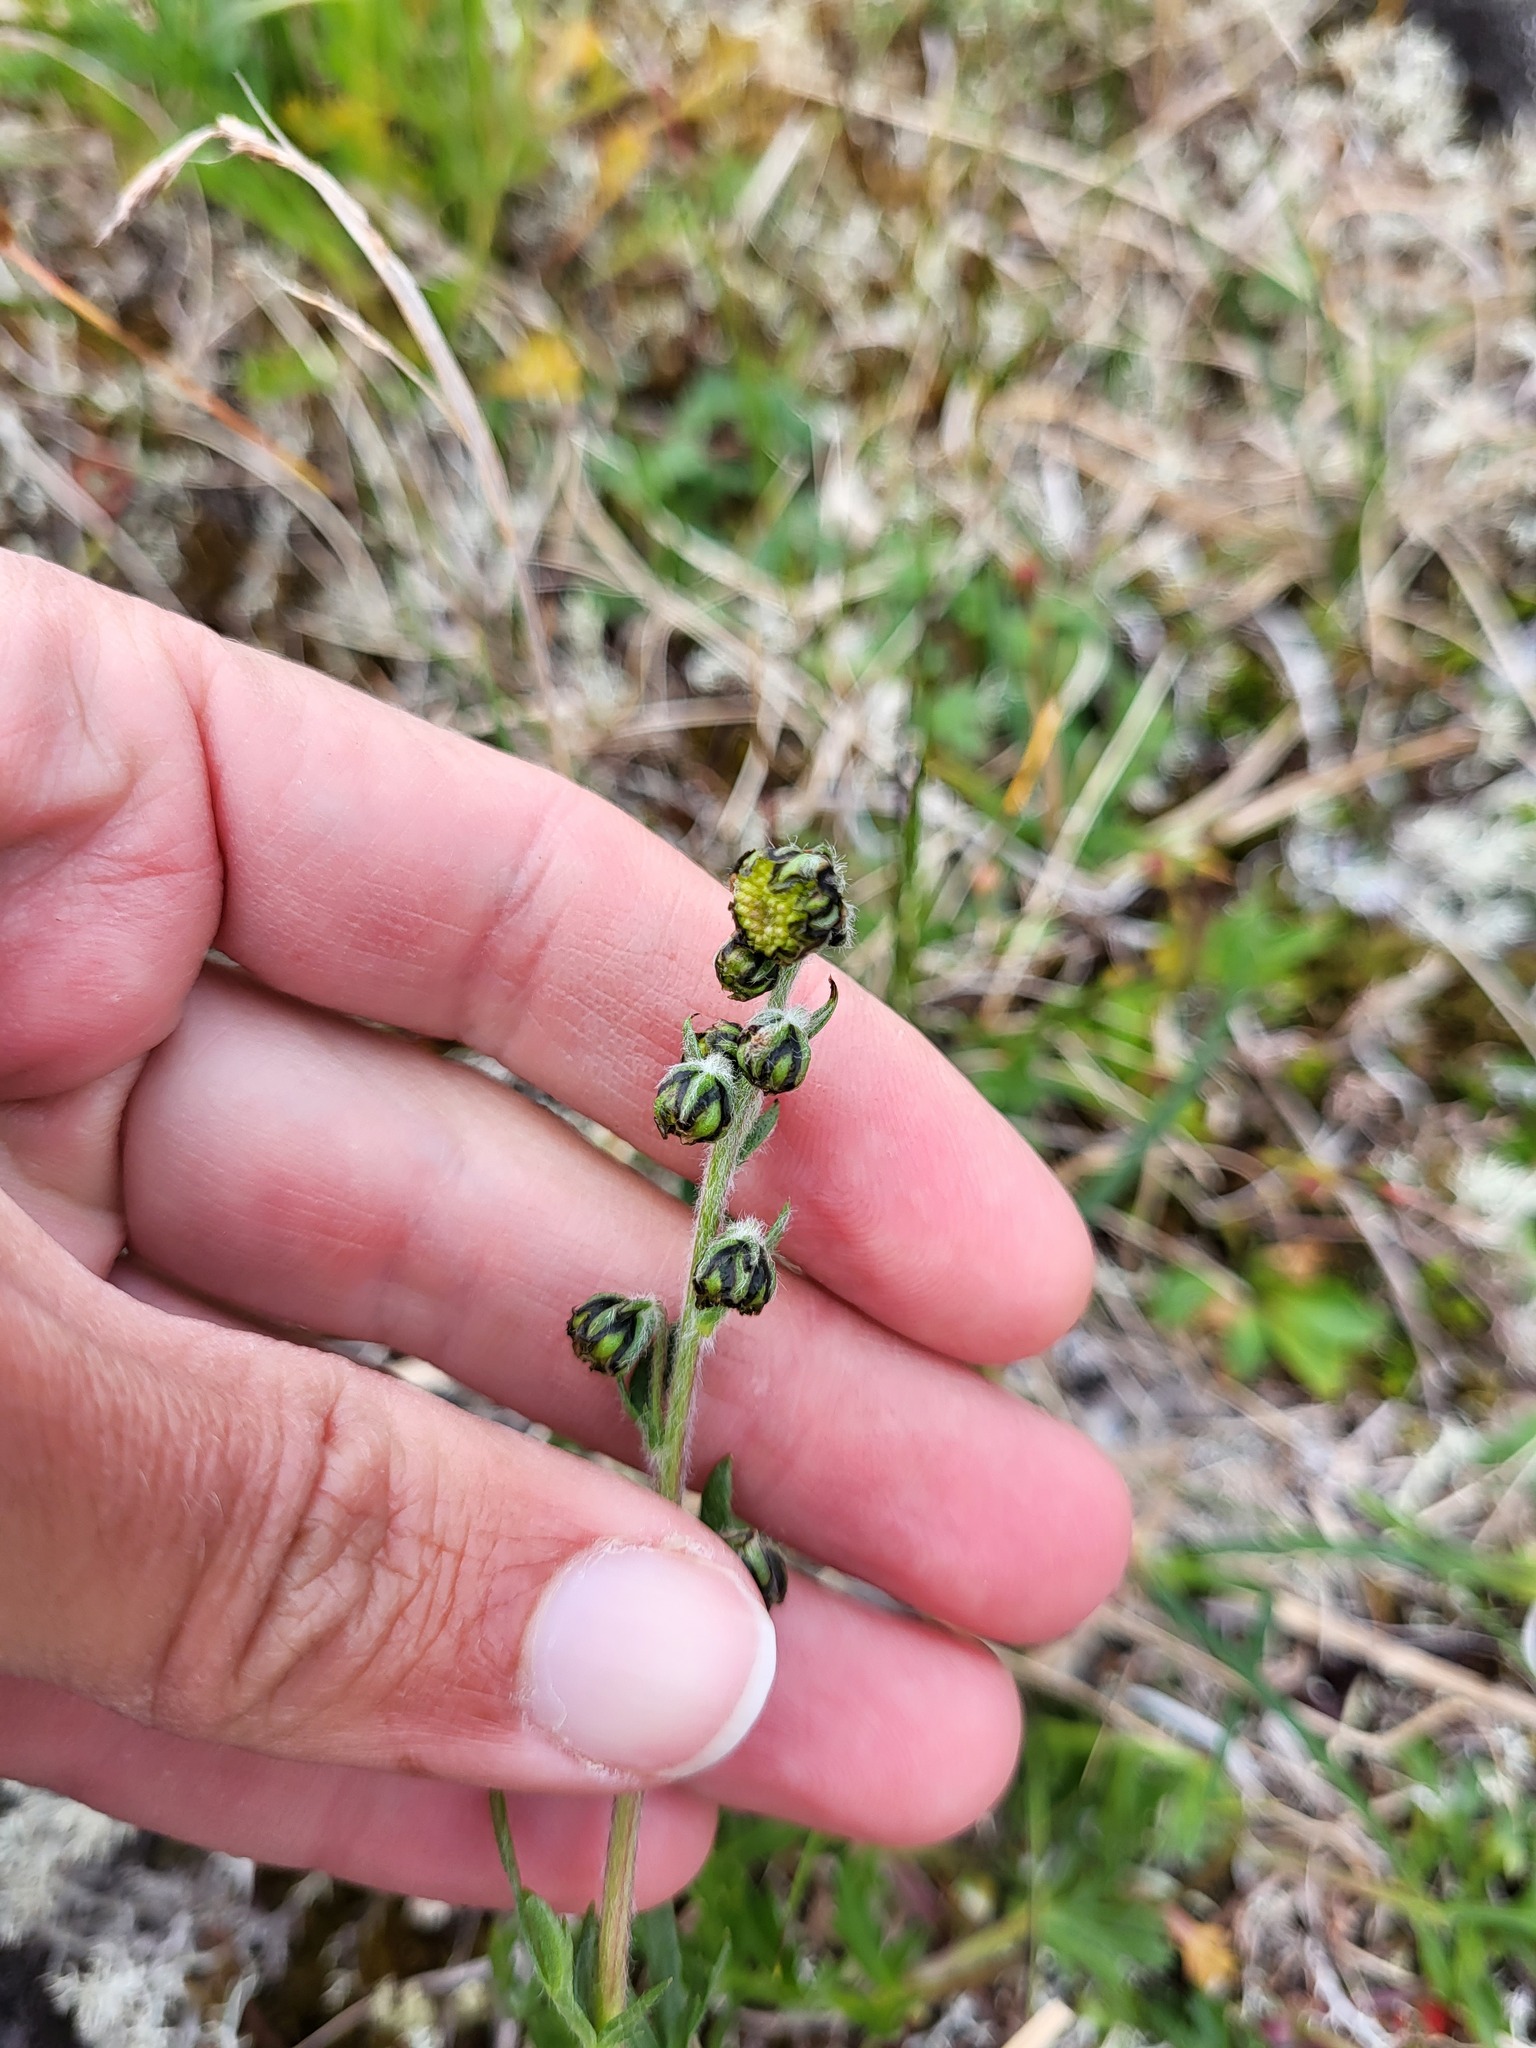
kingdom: Plantae
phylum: Tracheophyta
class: Magnoliopsida
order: Asterales
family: Asteraceae
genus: Artemisia
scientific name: Artemisia norvegica
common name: Norwegian mugwort
